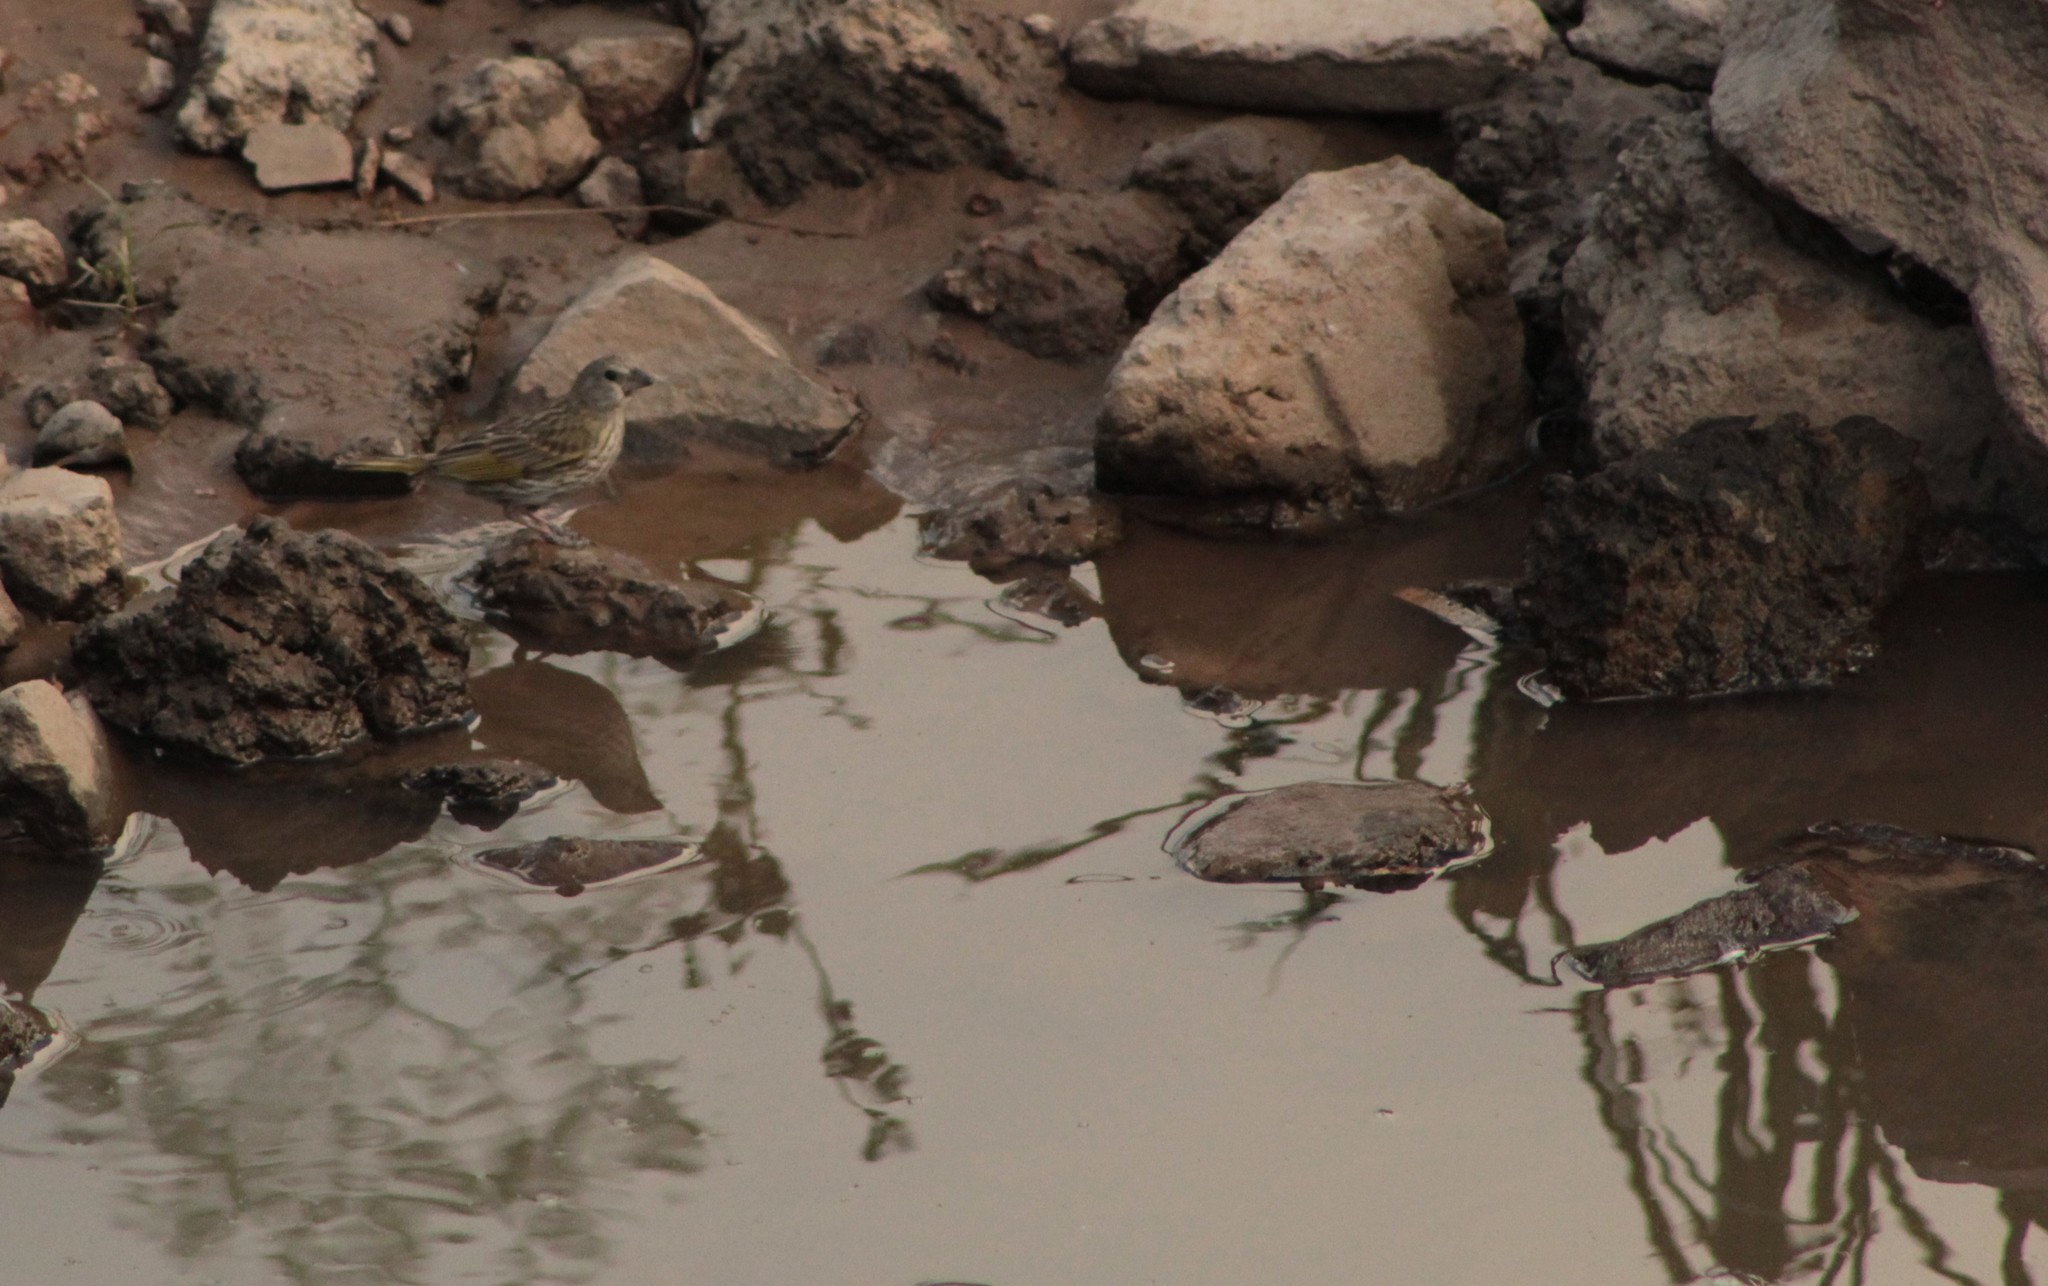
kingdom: Animalia
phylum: Chordata
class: Aves
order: Passeriformes
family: Thraupidae
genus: Sicalis
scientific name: Sicalis luteola
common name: Grassland yellow-finch
